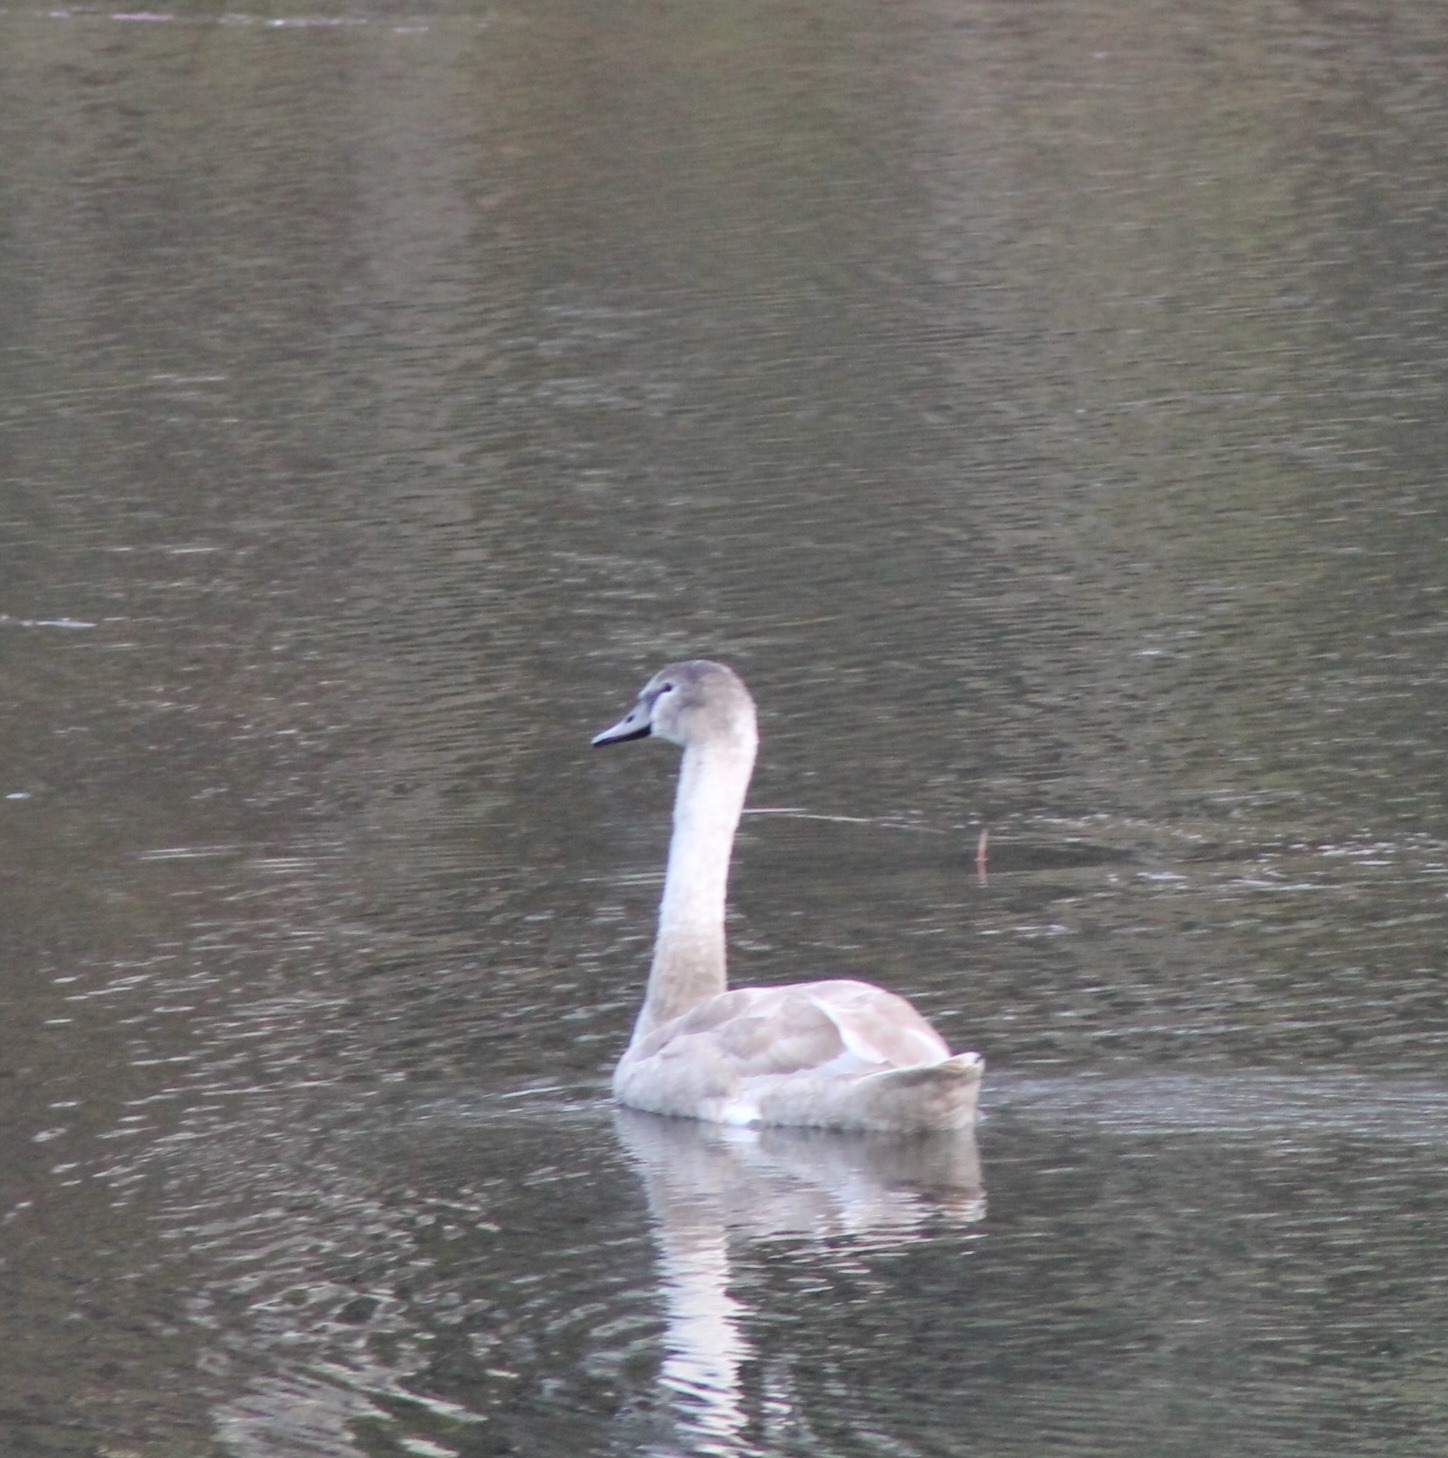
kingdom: Animalia
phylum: Chordata
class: Aves
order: Anseriformes
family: Anatidae
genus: Cygnus
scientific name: Cygnus olor
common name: Mute swan
